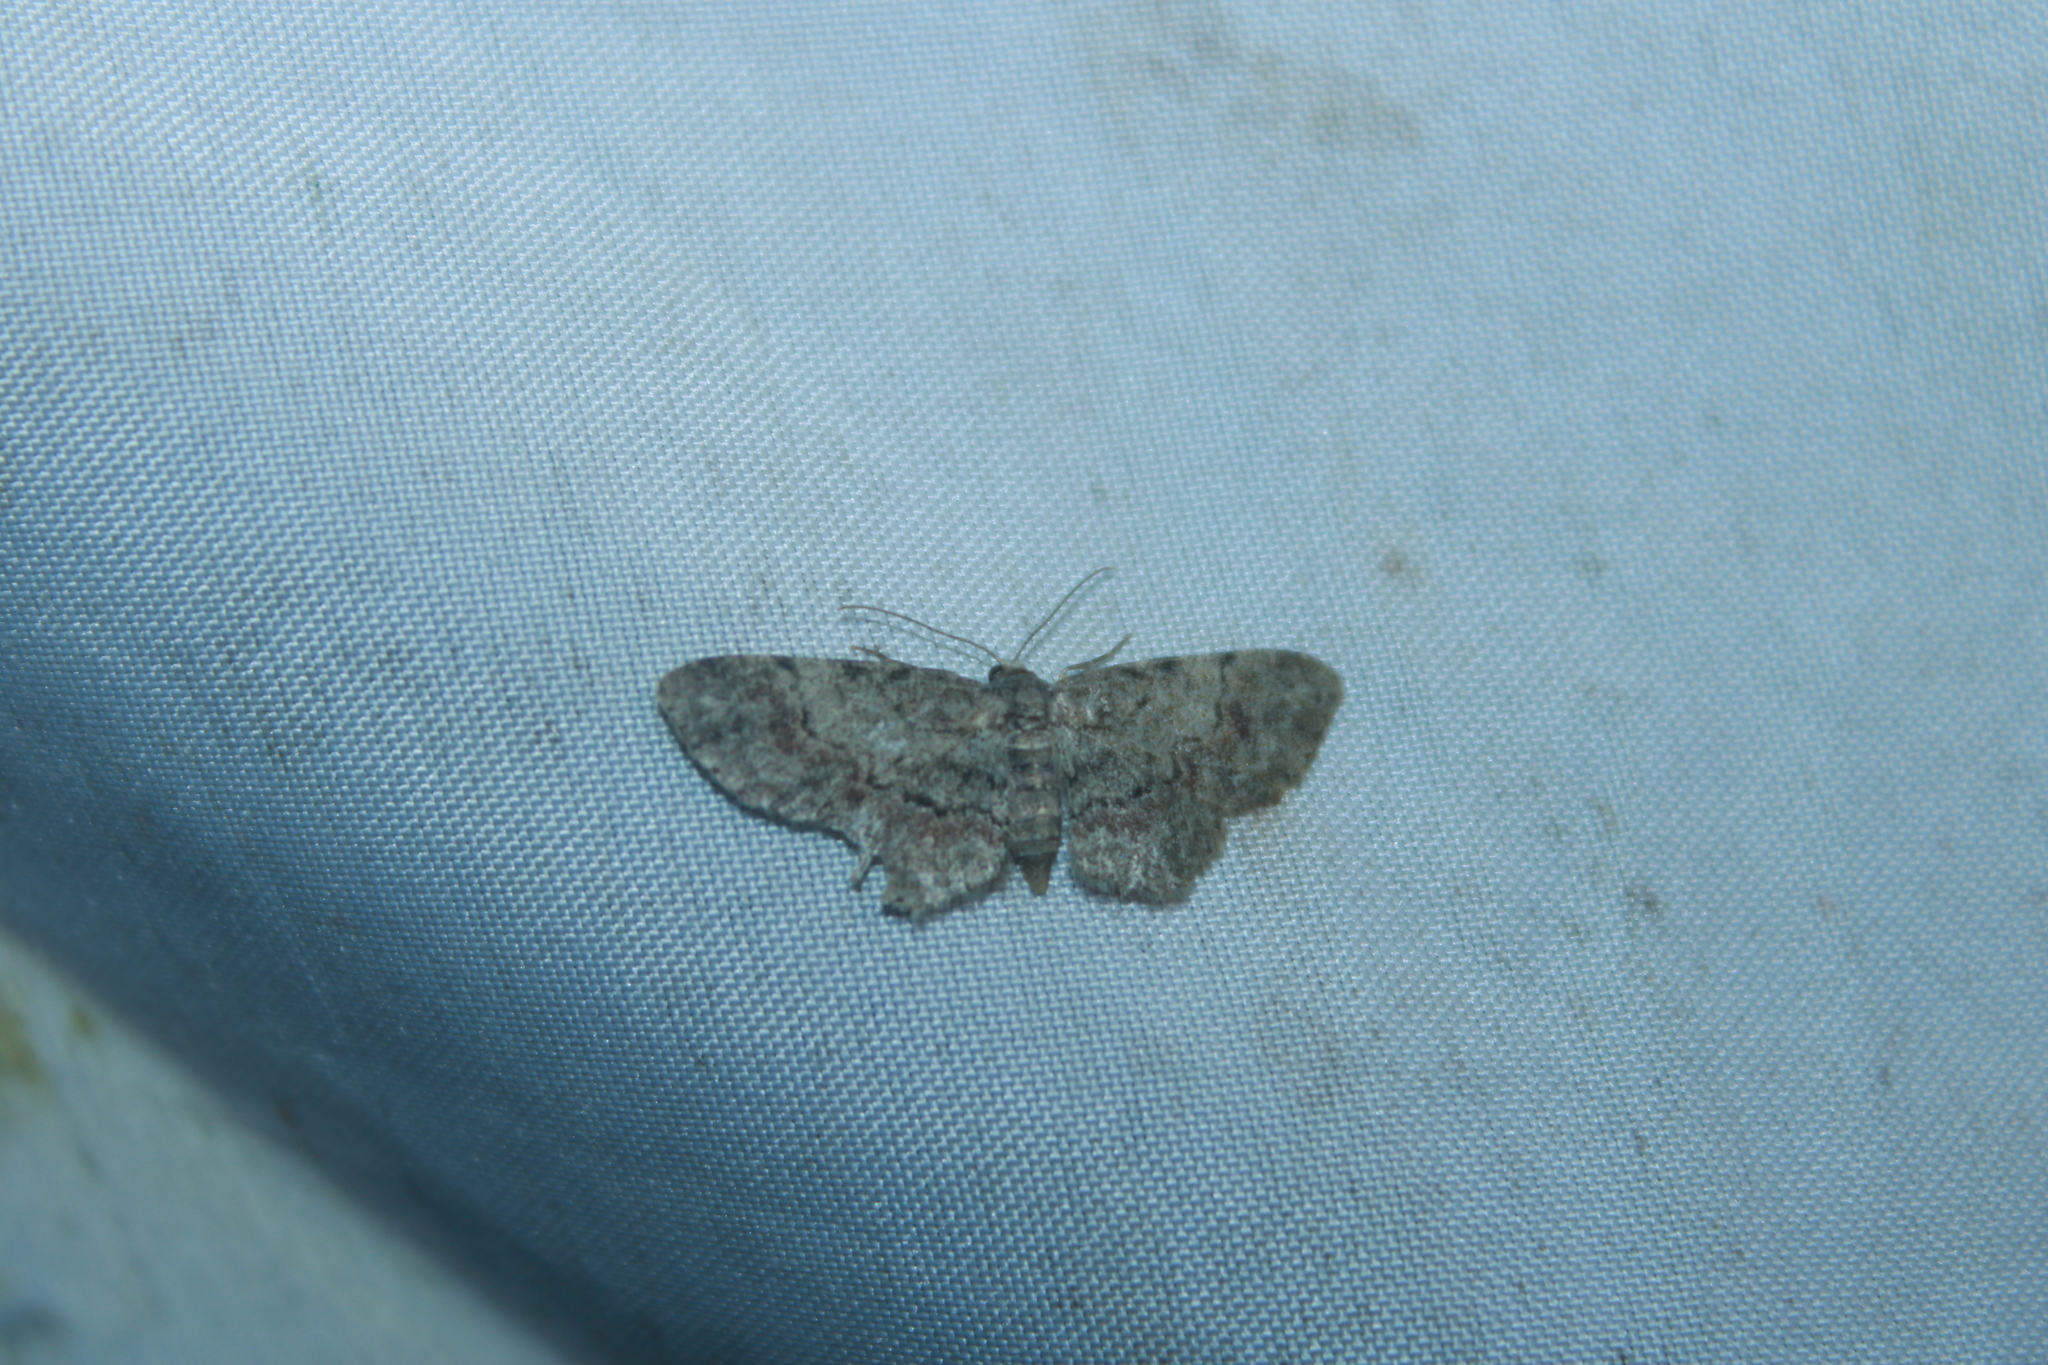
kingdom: Animalia
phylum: Arthropoda
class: Insecta
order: Lepidoptera
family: Geometridae
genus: Glenoides
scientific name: Glenoides texanaria
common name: Texas gray
